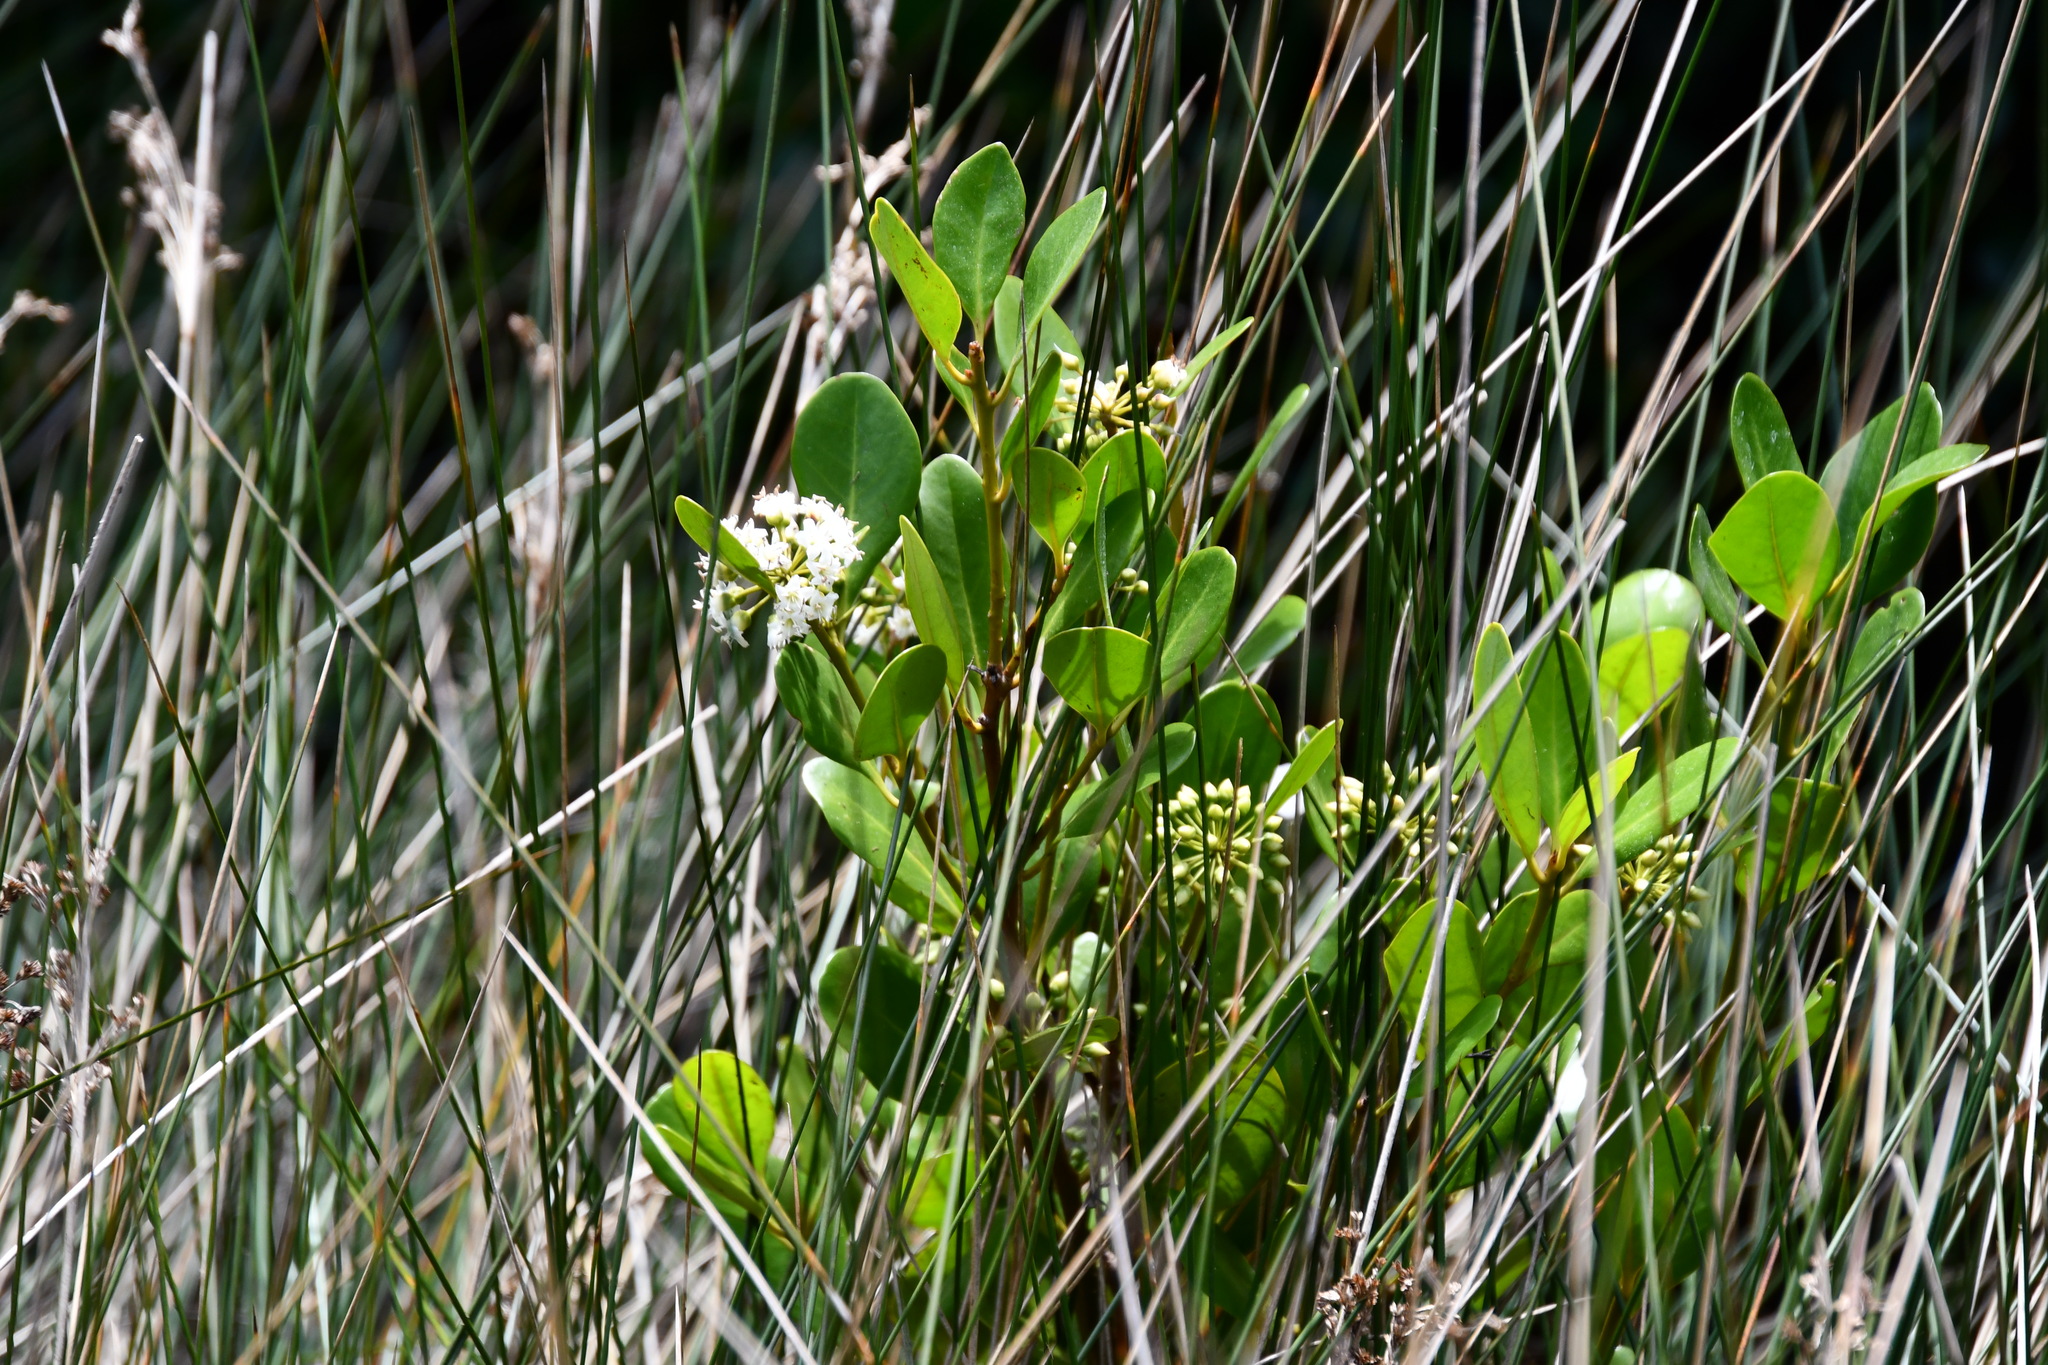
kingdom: Plantae
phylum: Tracheophyta
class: Magnoliopsida
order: Ericales
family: Primulaceae
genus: Aegiceras
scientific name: Aegiceras corniculatum
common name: River mangrove
